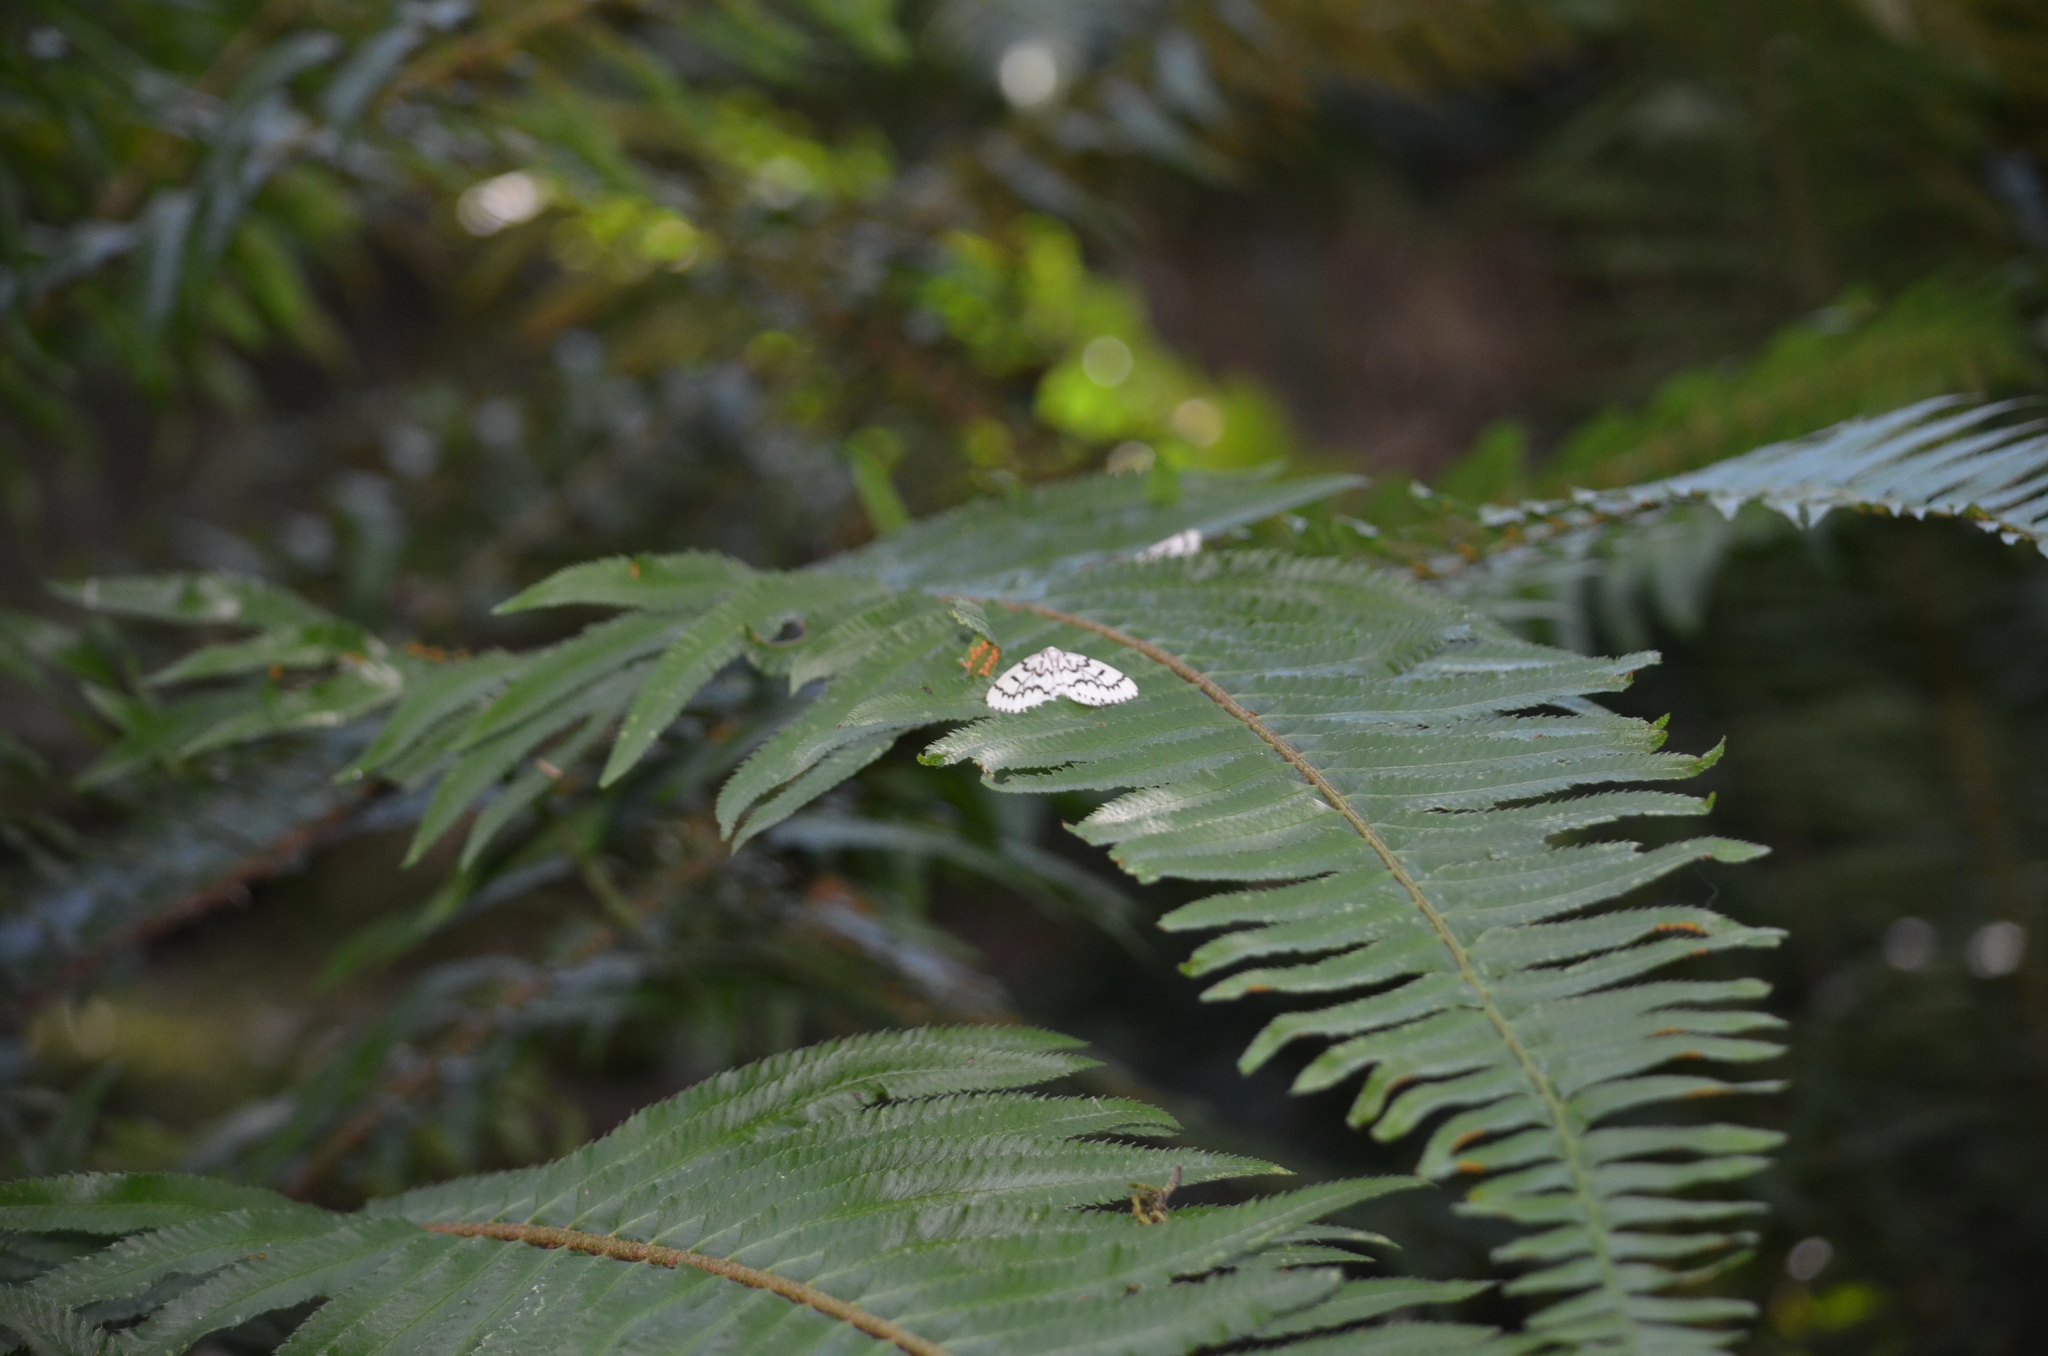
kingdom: Animalia
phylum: Arthropoda
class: Insecta
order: Lepidoptera
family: Geometridae
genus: Nepytia
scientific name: Nepytia phantasmaria
